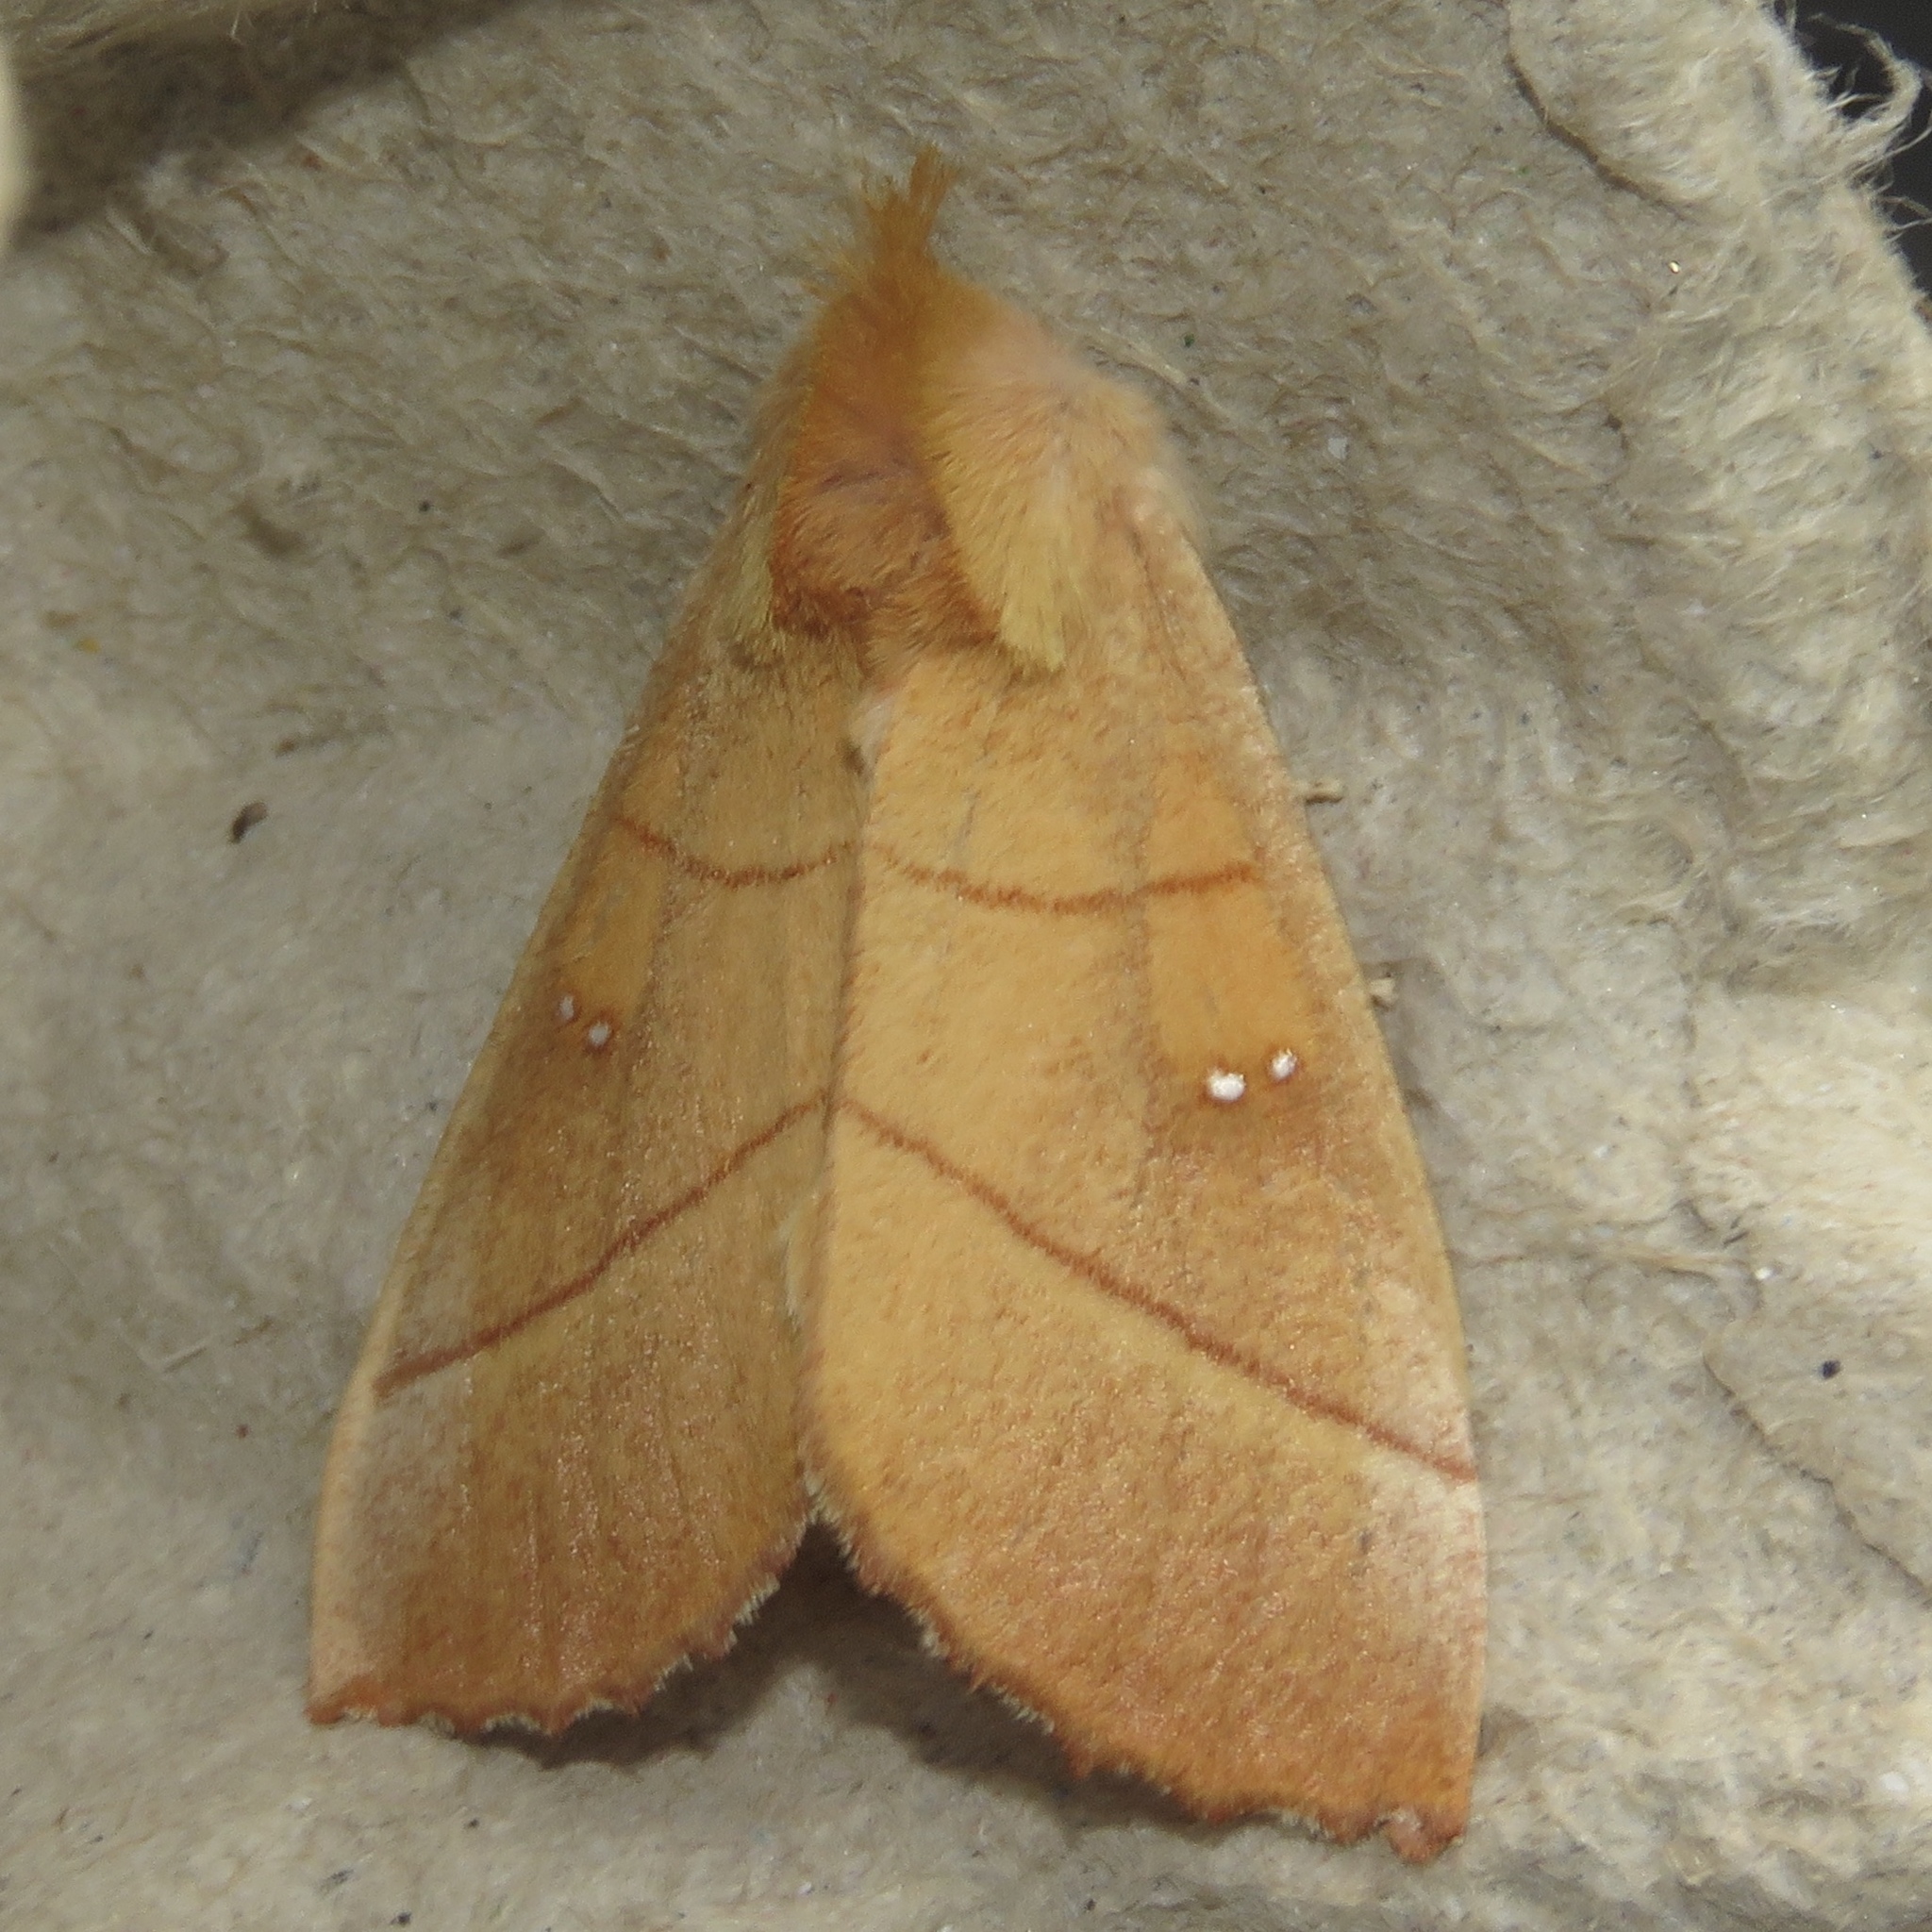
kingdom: Animalia
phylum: Arthropoda
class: Insecta
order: Lepidoptera
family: Notodontidae
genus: Nadata
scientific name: Nadata gibbosa
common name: White-dotted prominent
